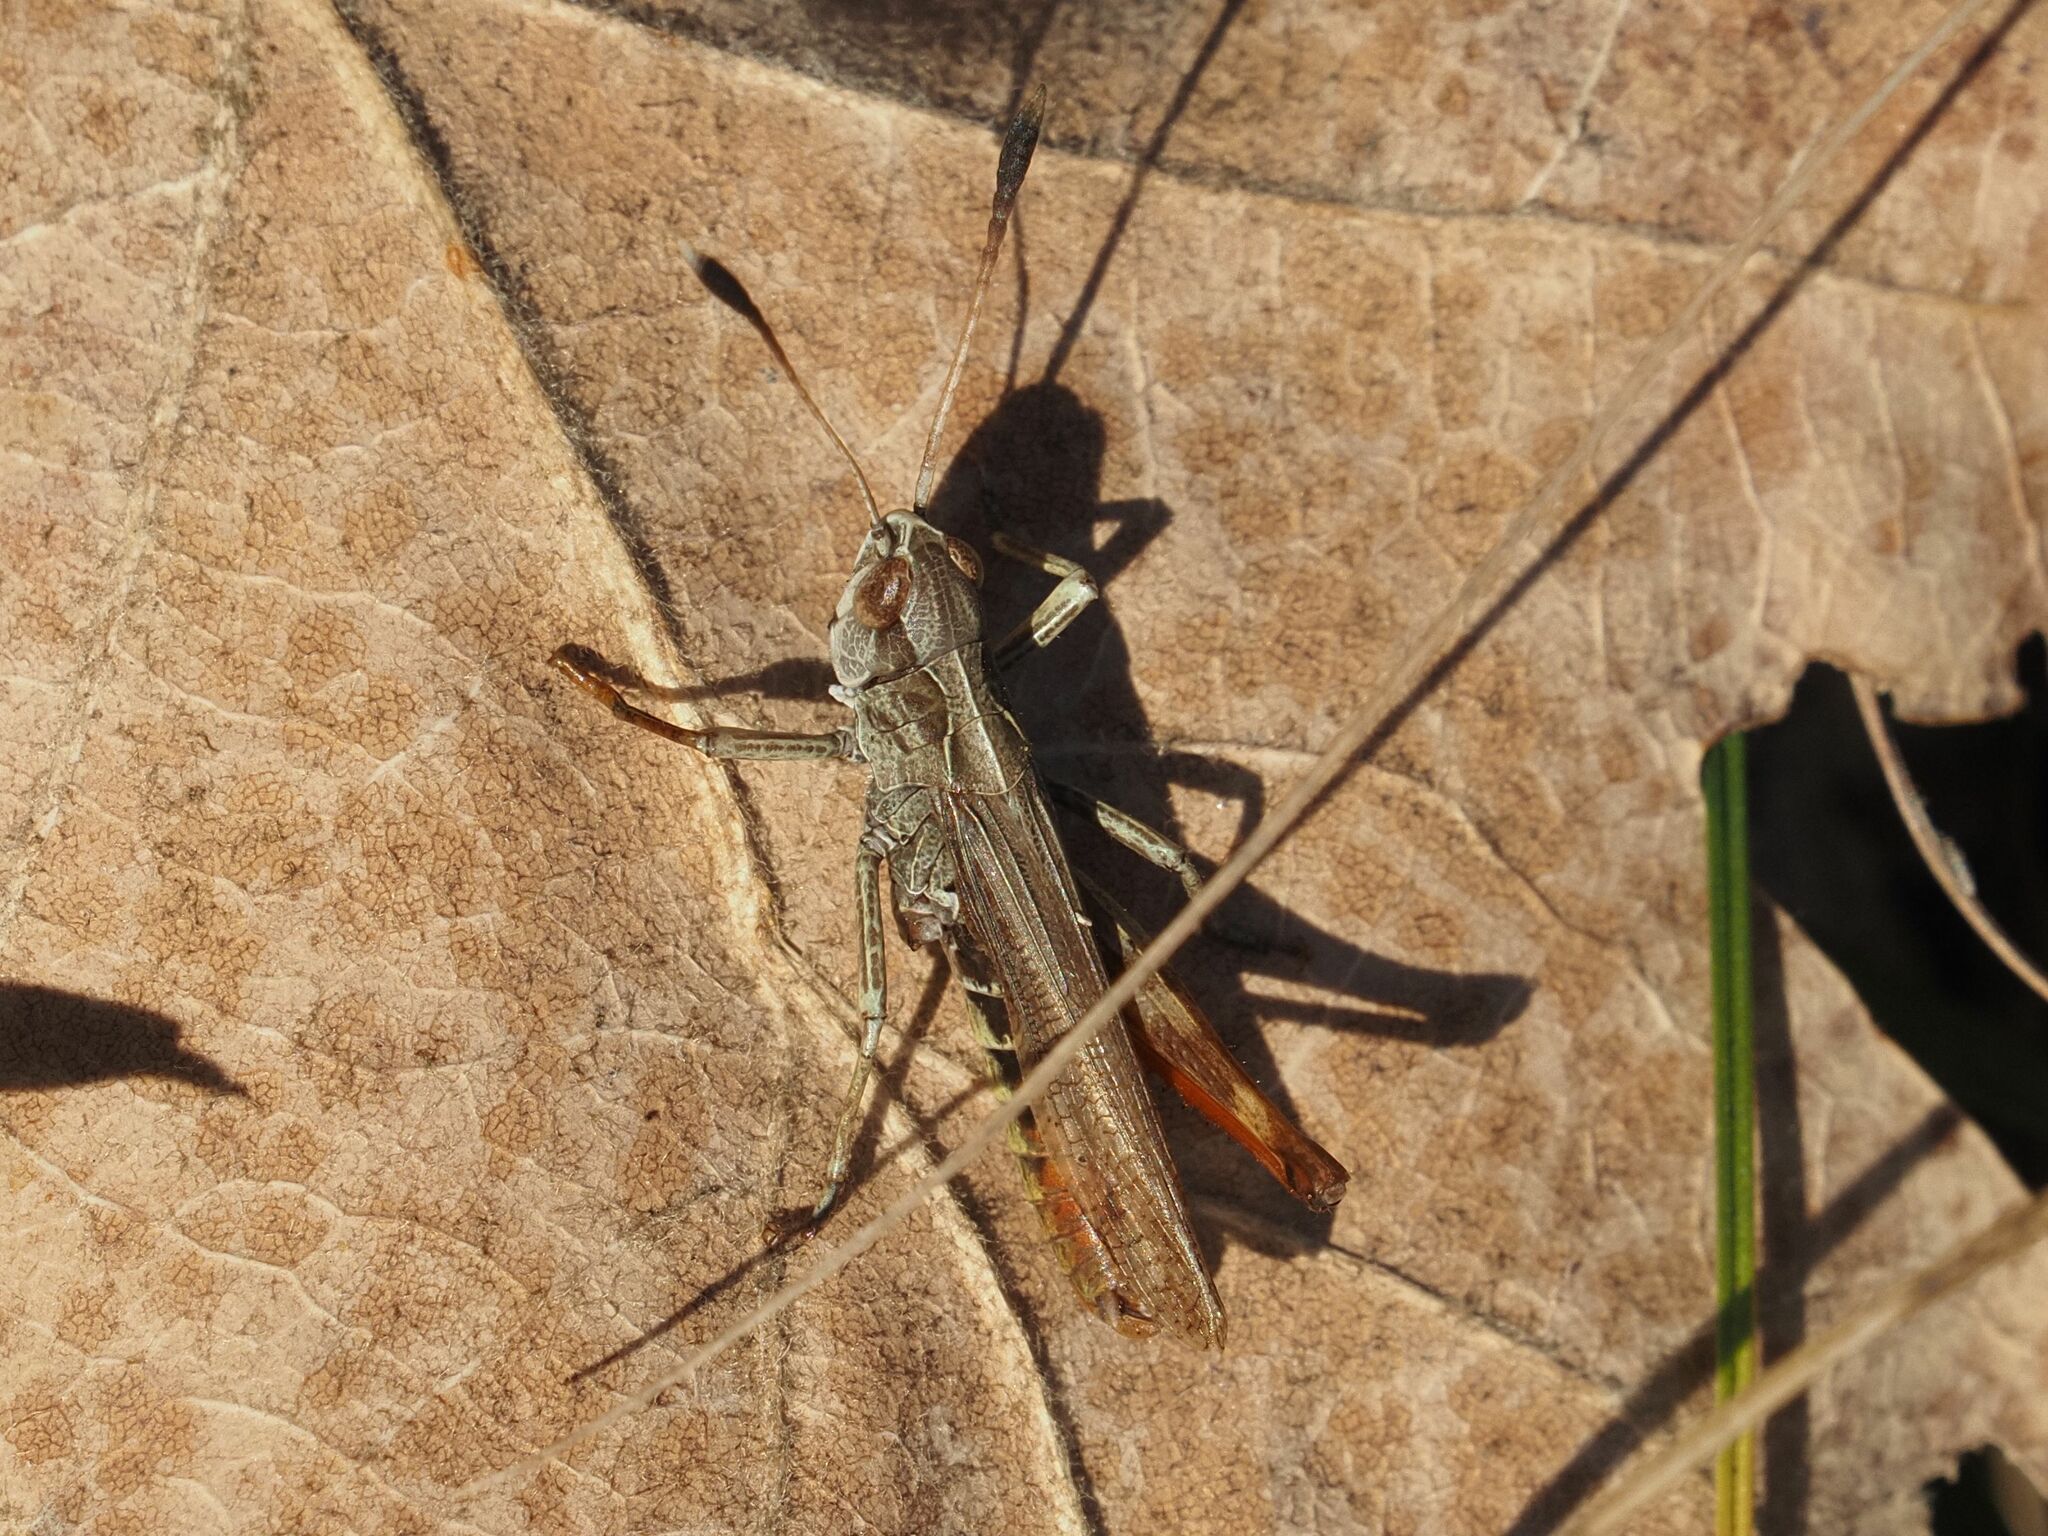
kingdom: Animalia
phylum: Arthropoda
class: Insecta
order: Orthoptera
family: Acrididae
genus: Gomphocerippus
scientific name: Gomphocerippus rufus
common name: Rufous grasshopper
